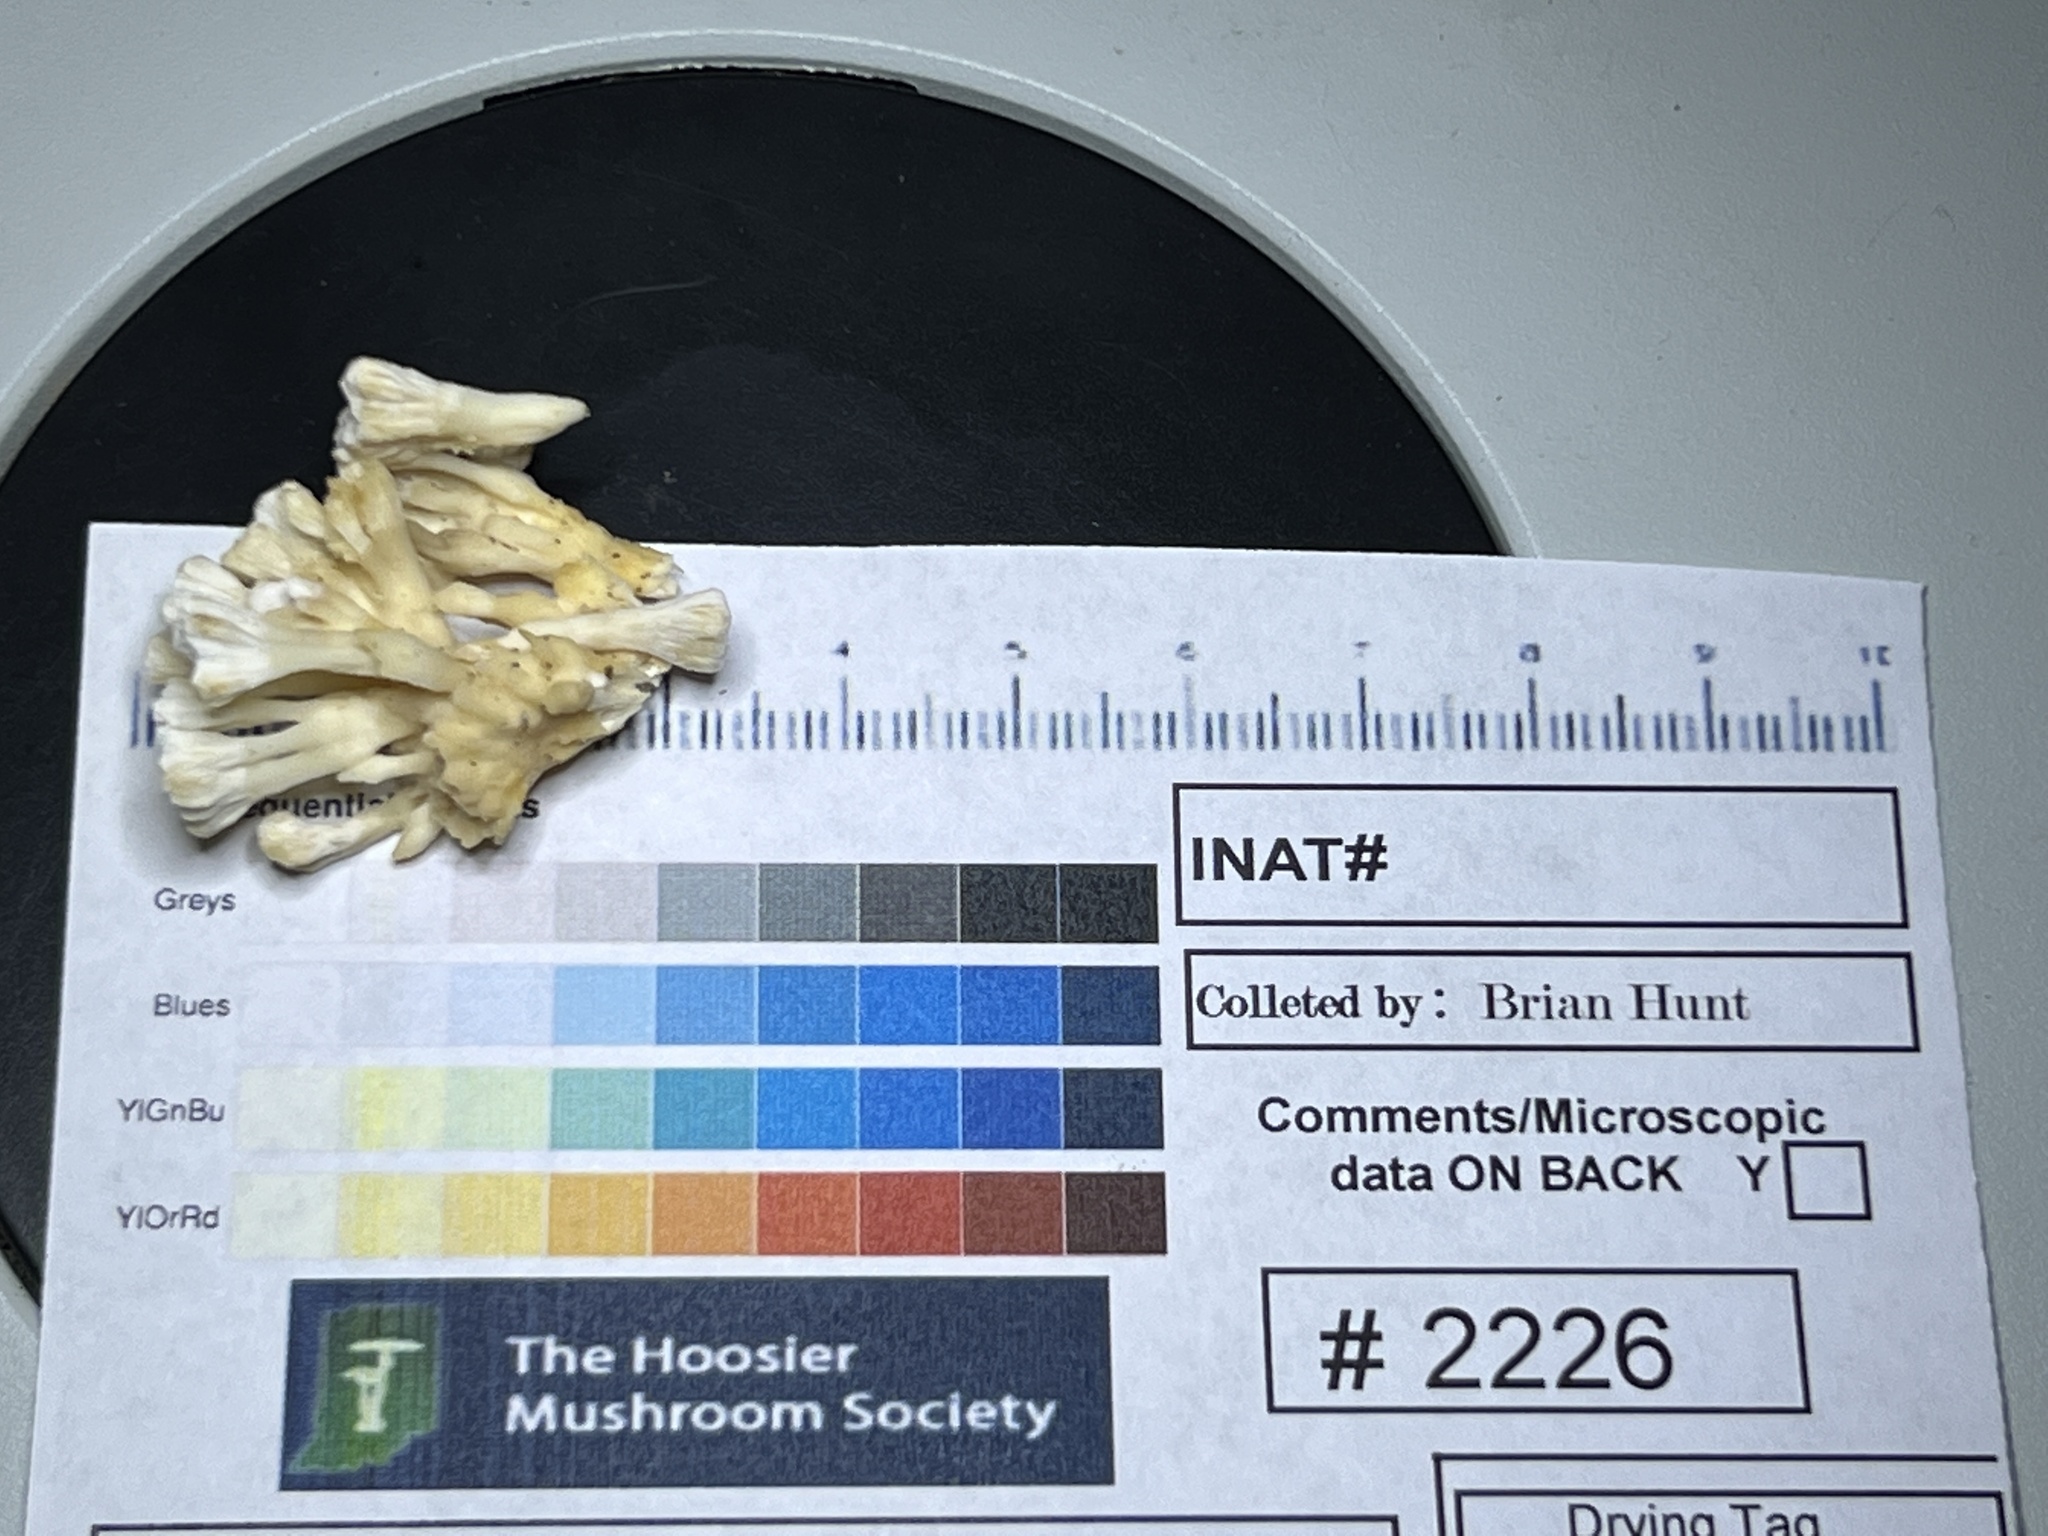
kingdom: Fungi
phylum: Basidiomycota
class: Agaricomycetes
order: Sebacinales
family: Sebacinaceae
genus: Sebacina
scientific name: Sebacina schweinitzii
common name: Jellied false coral fungus
